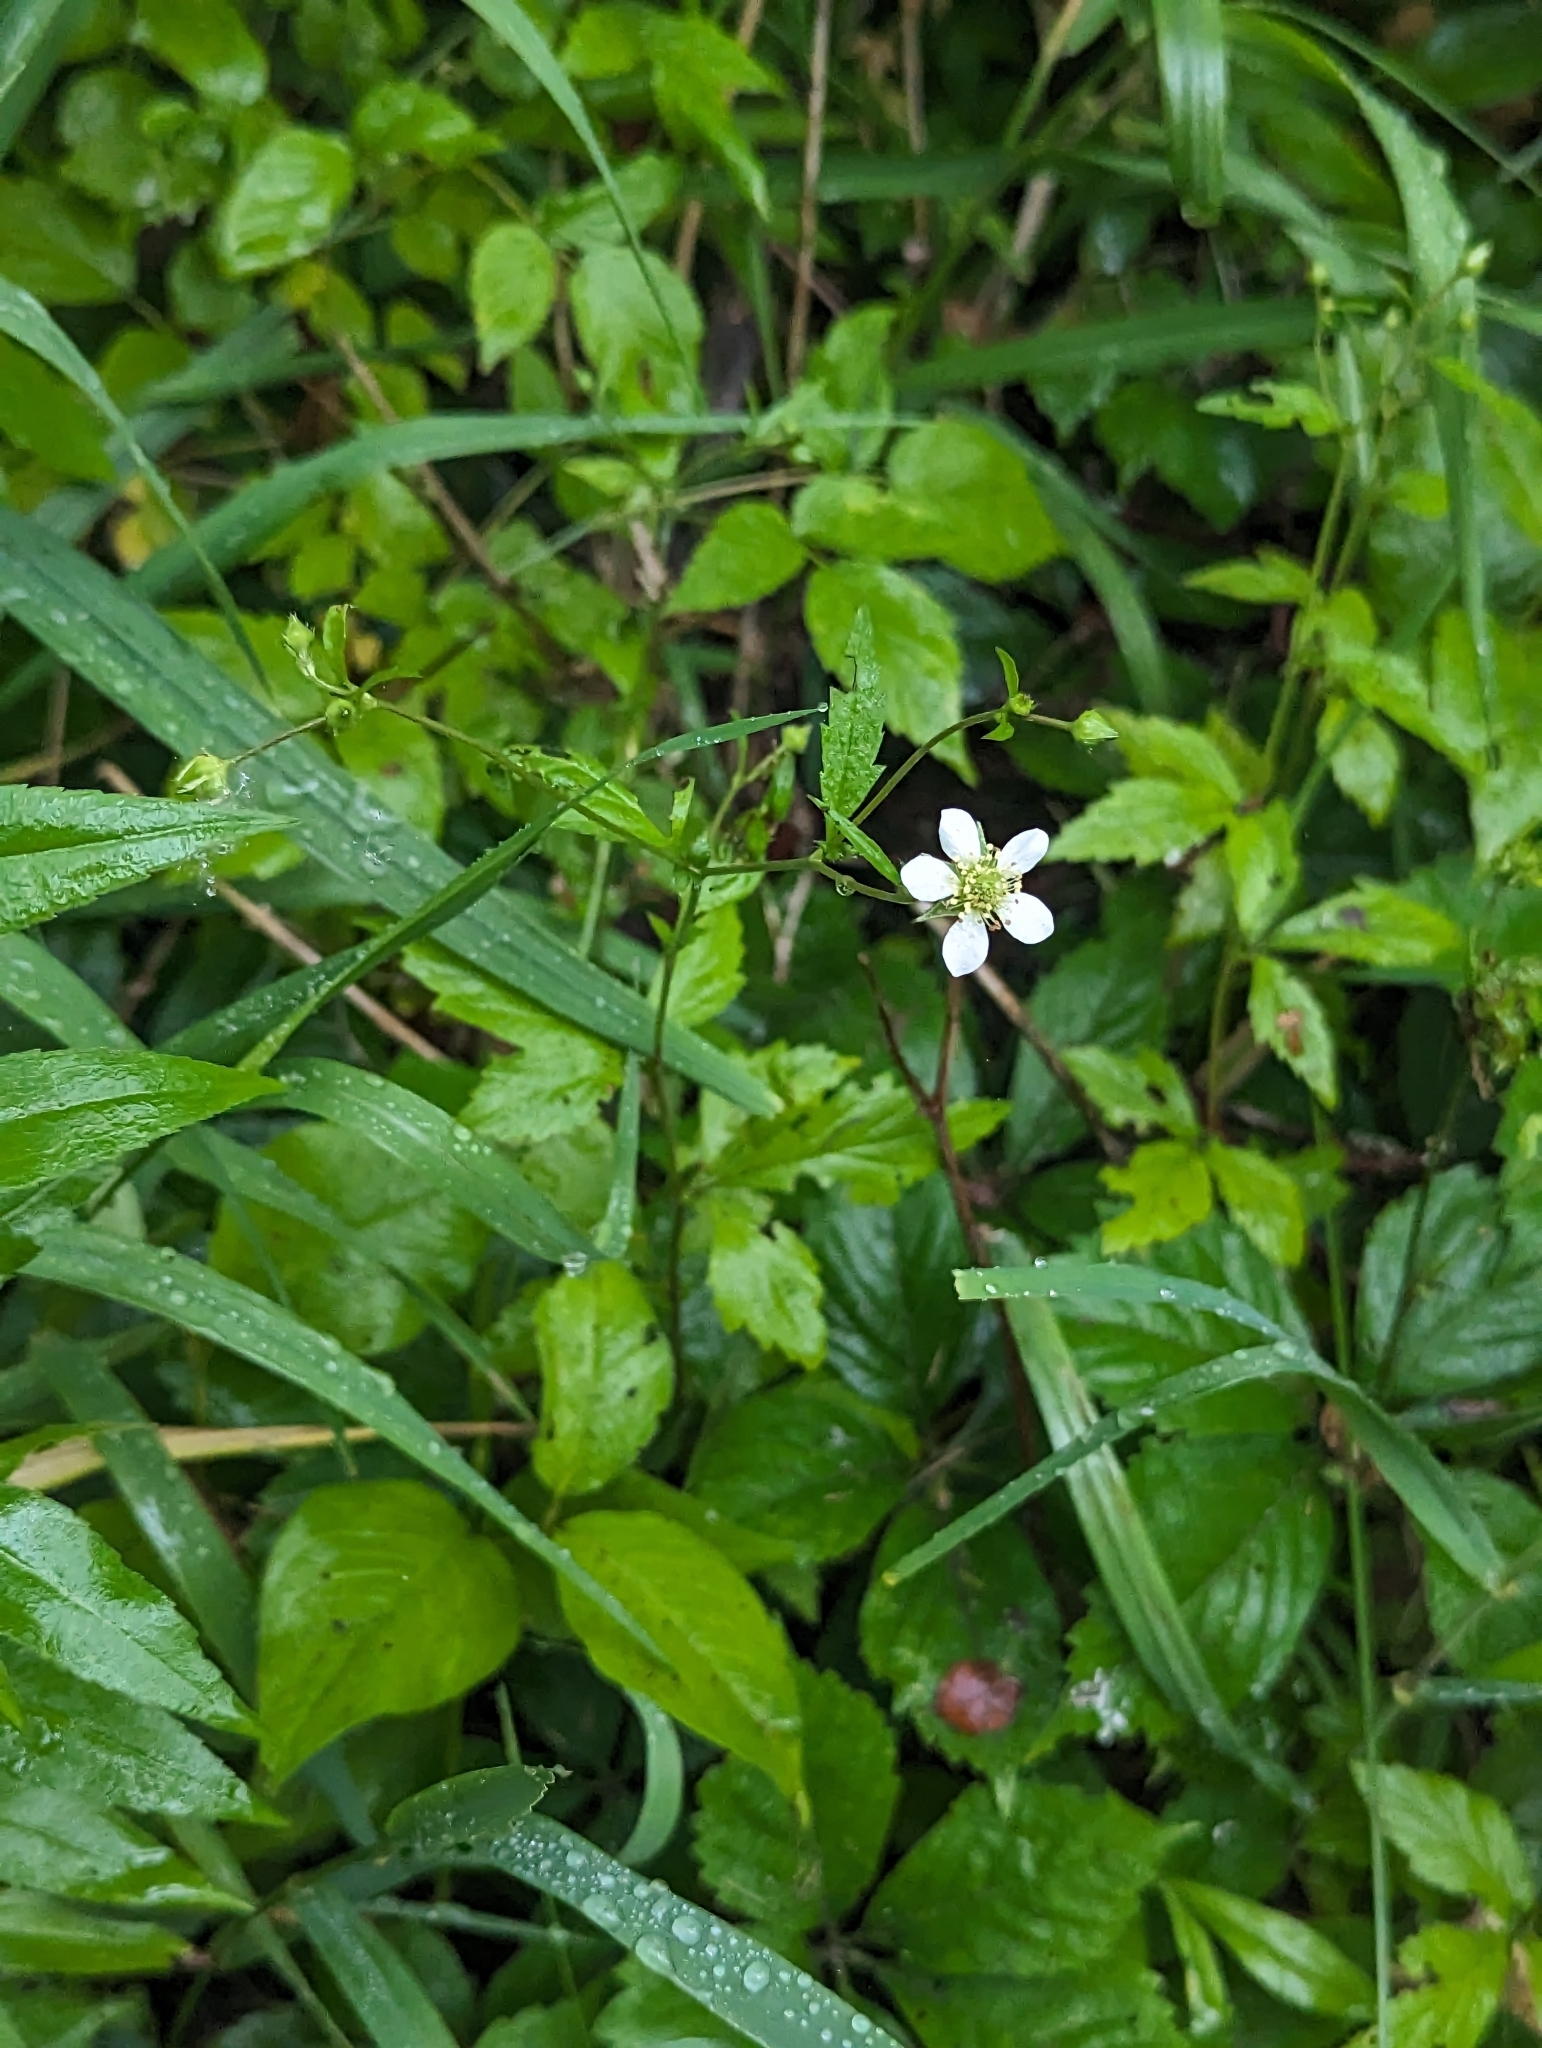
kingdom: Plantae
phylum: Tracheophyta
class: Magnoliopsida
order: Rosales
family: Rosaceae
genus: Geum
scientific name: Geum canadense
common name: White avens
